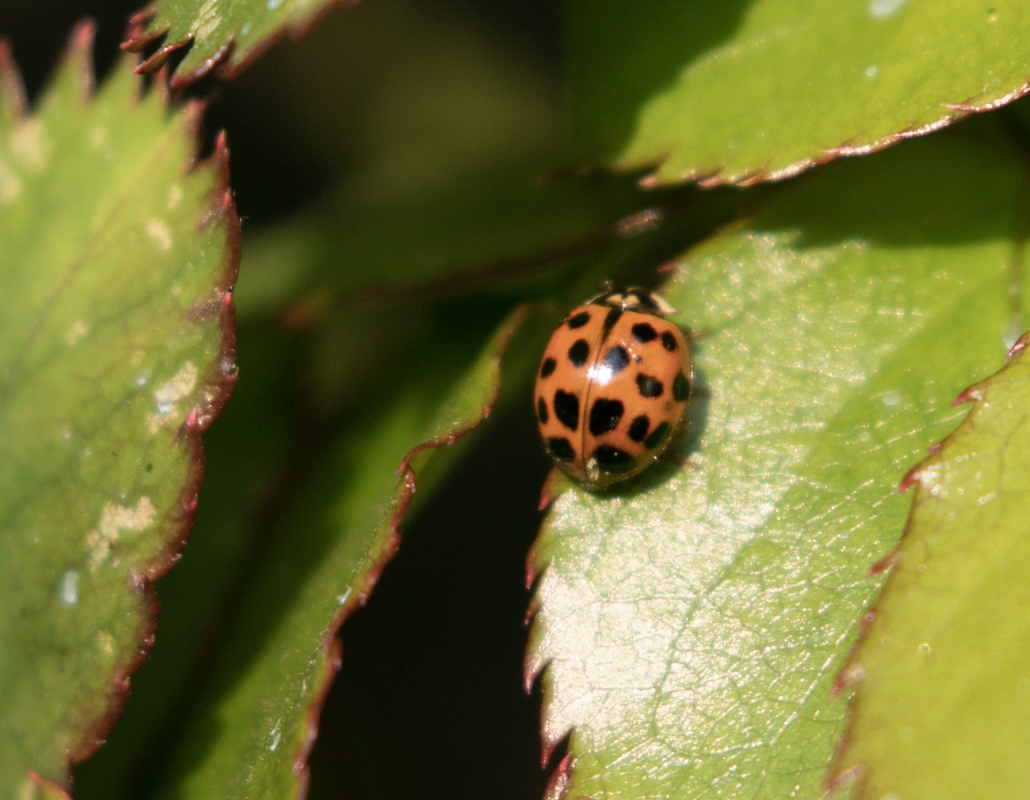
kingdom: Animalia
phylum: Arthropoda
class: Insecta
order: Coleoptera
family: Coccinellidae
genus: Harmonia
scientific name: Harmonia axyridis
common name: Harlequin ladybird
